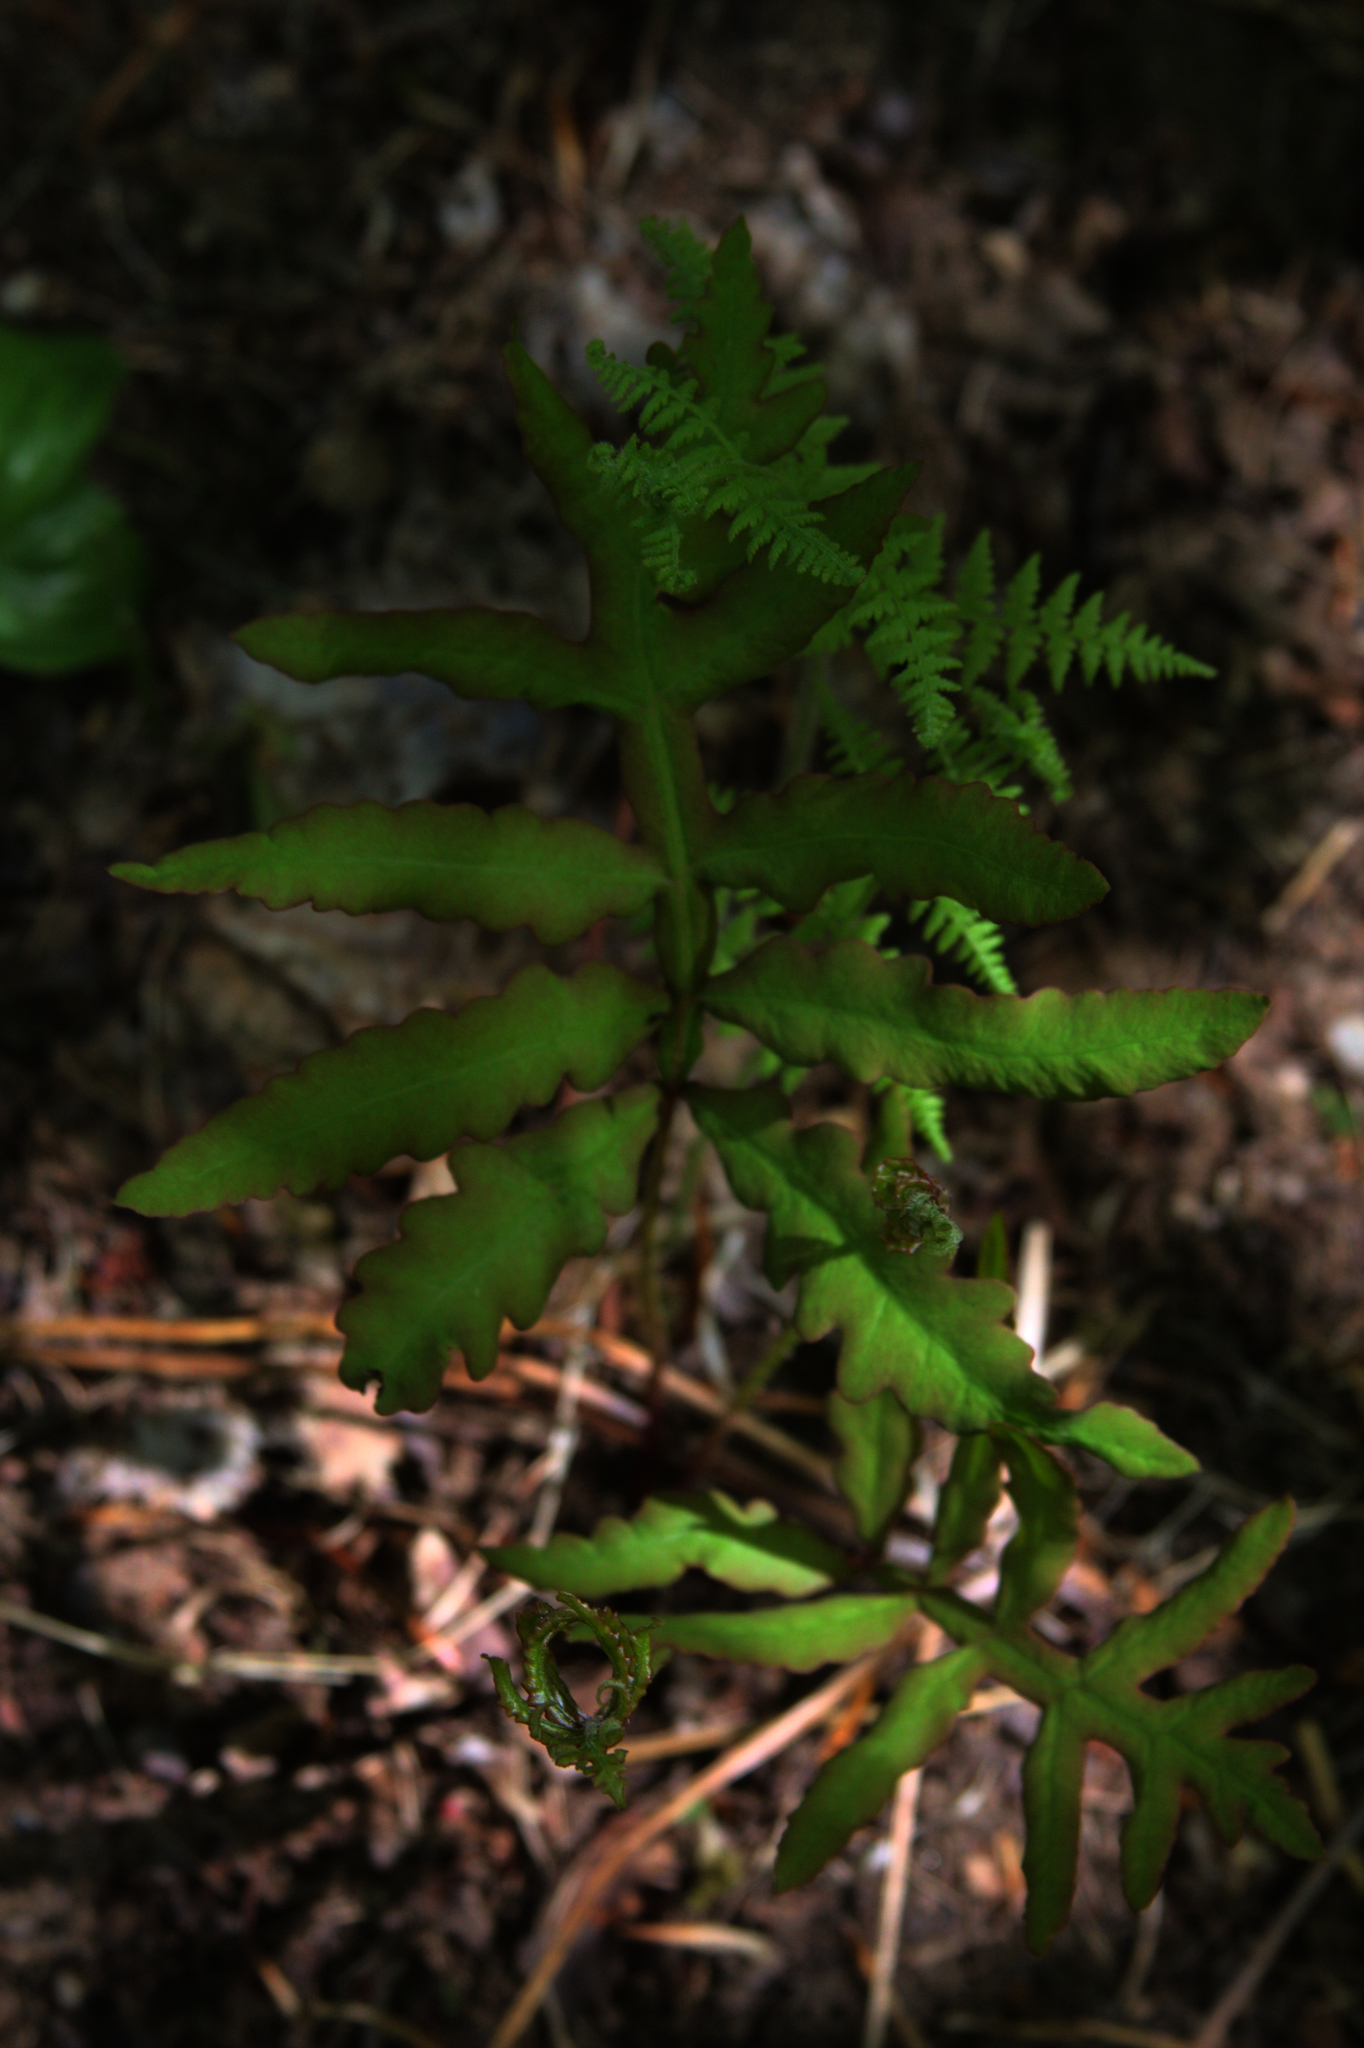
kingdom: Plantae
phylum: Tracheophyta
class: Polypodiopsida
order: Polypodiales
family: Onocleaceae
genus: Onoclea
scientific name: Onoclea sensibilis
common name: Sensitive fern
